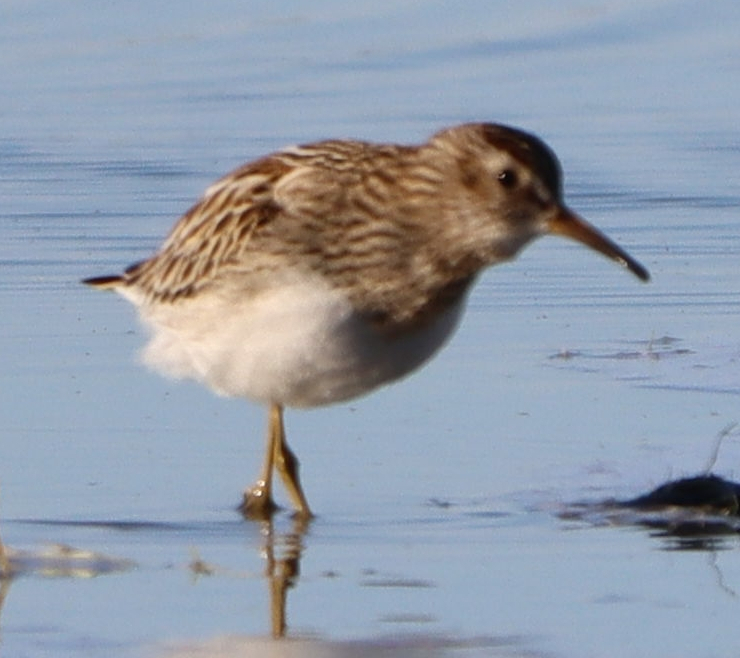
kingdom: Animalia
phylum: Chordata
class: Aves
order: Charadriiformes
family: Scolopacidae
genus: Calidris
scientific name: Calidris melanotos
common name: Pectoral sandpiper
